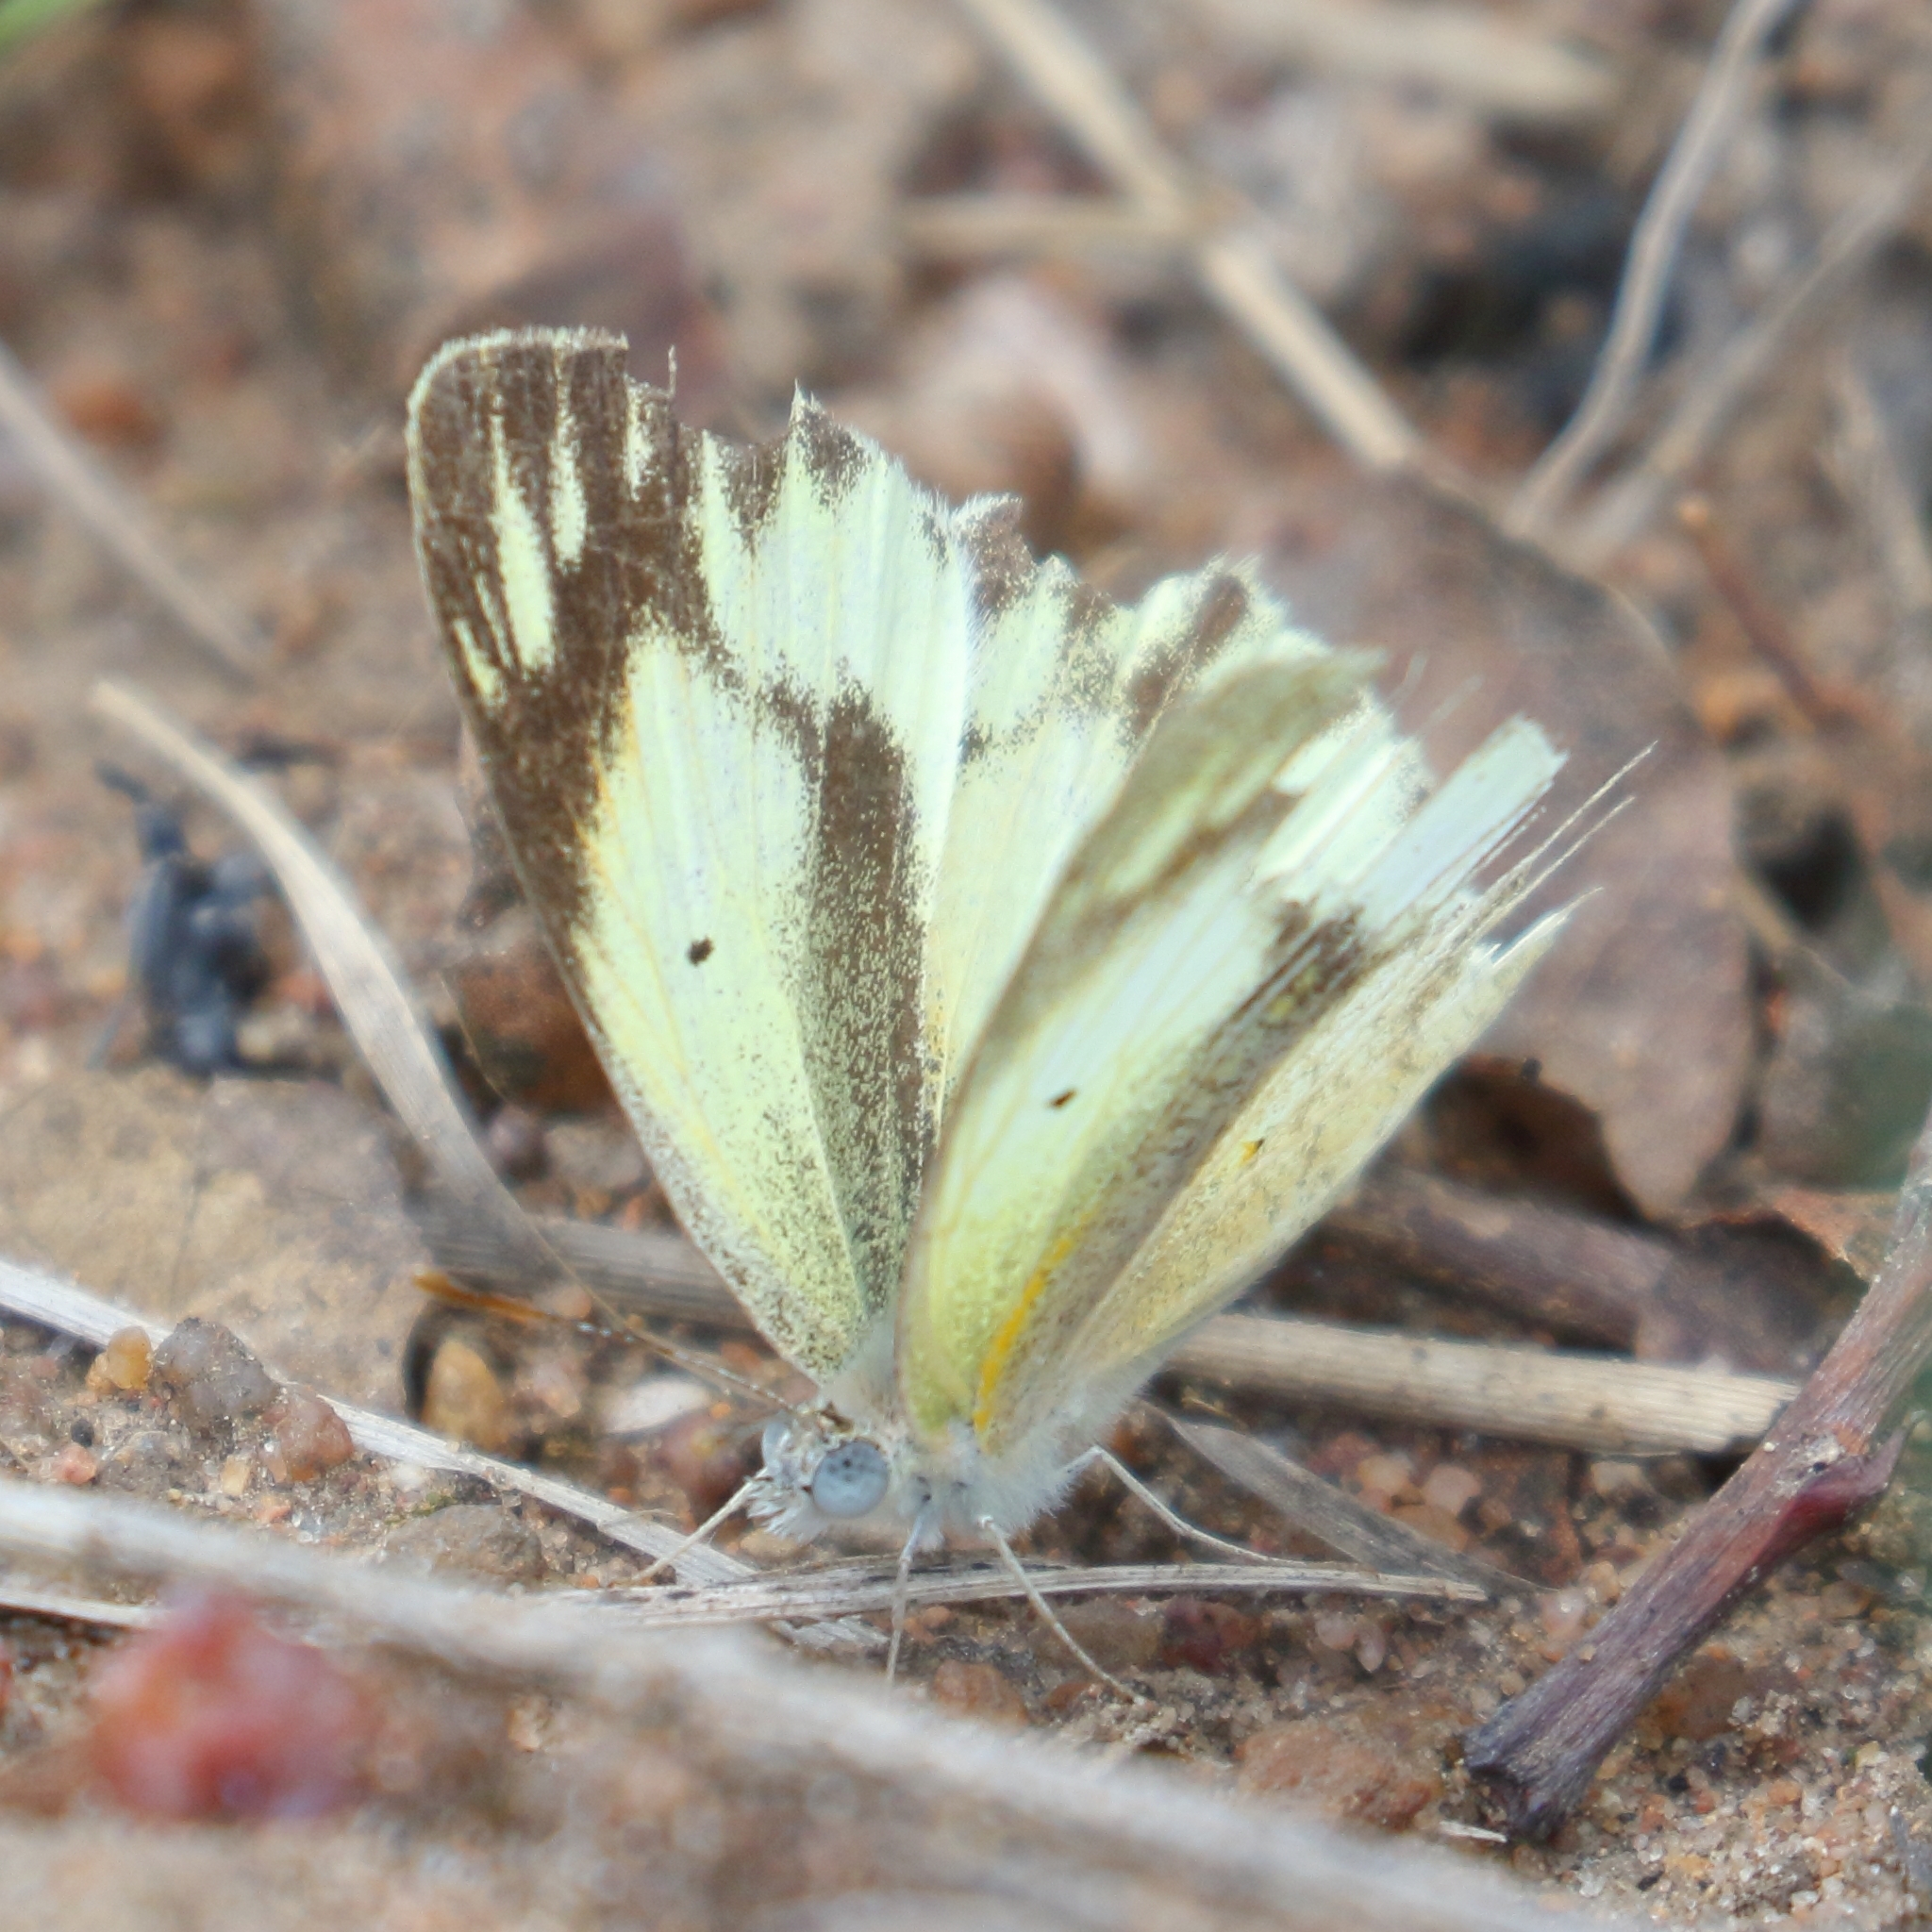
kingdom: Animalia
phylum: Arthropoda
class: Insecta
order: Lepidoptera
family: Pieridae
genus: Colotis
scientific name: Colotis antevippe
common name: Large orange tip
